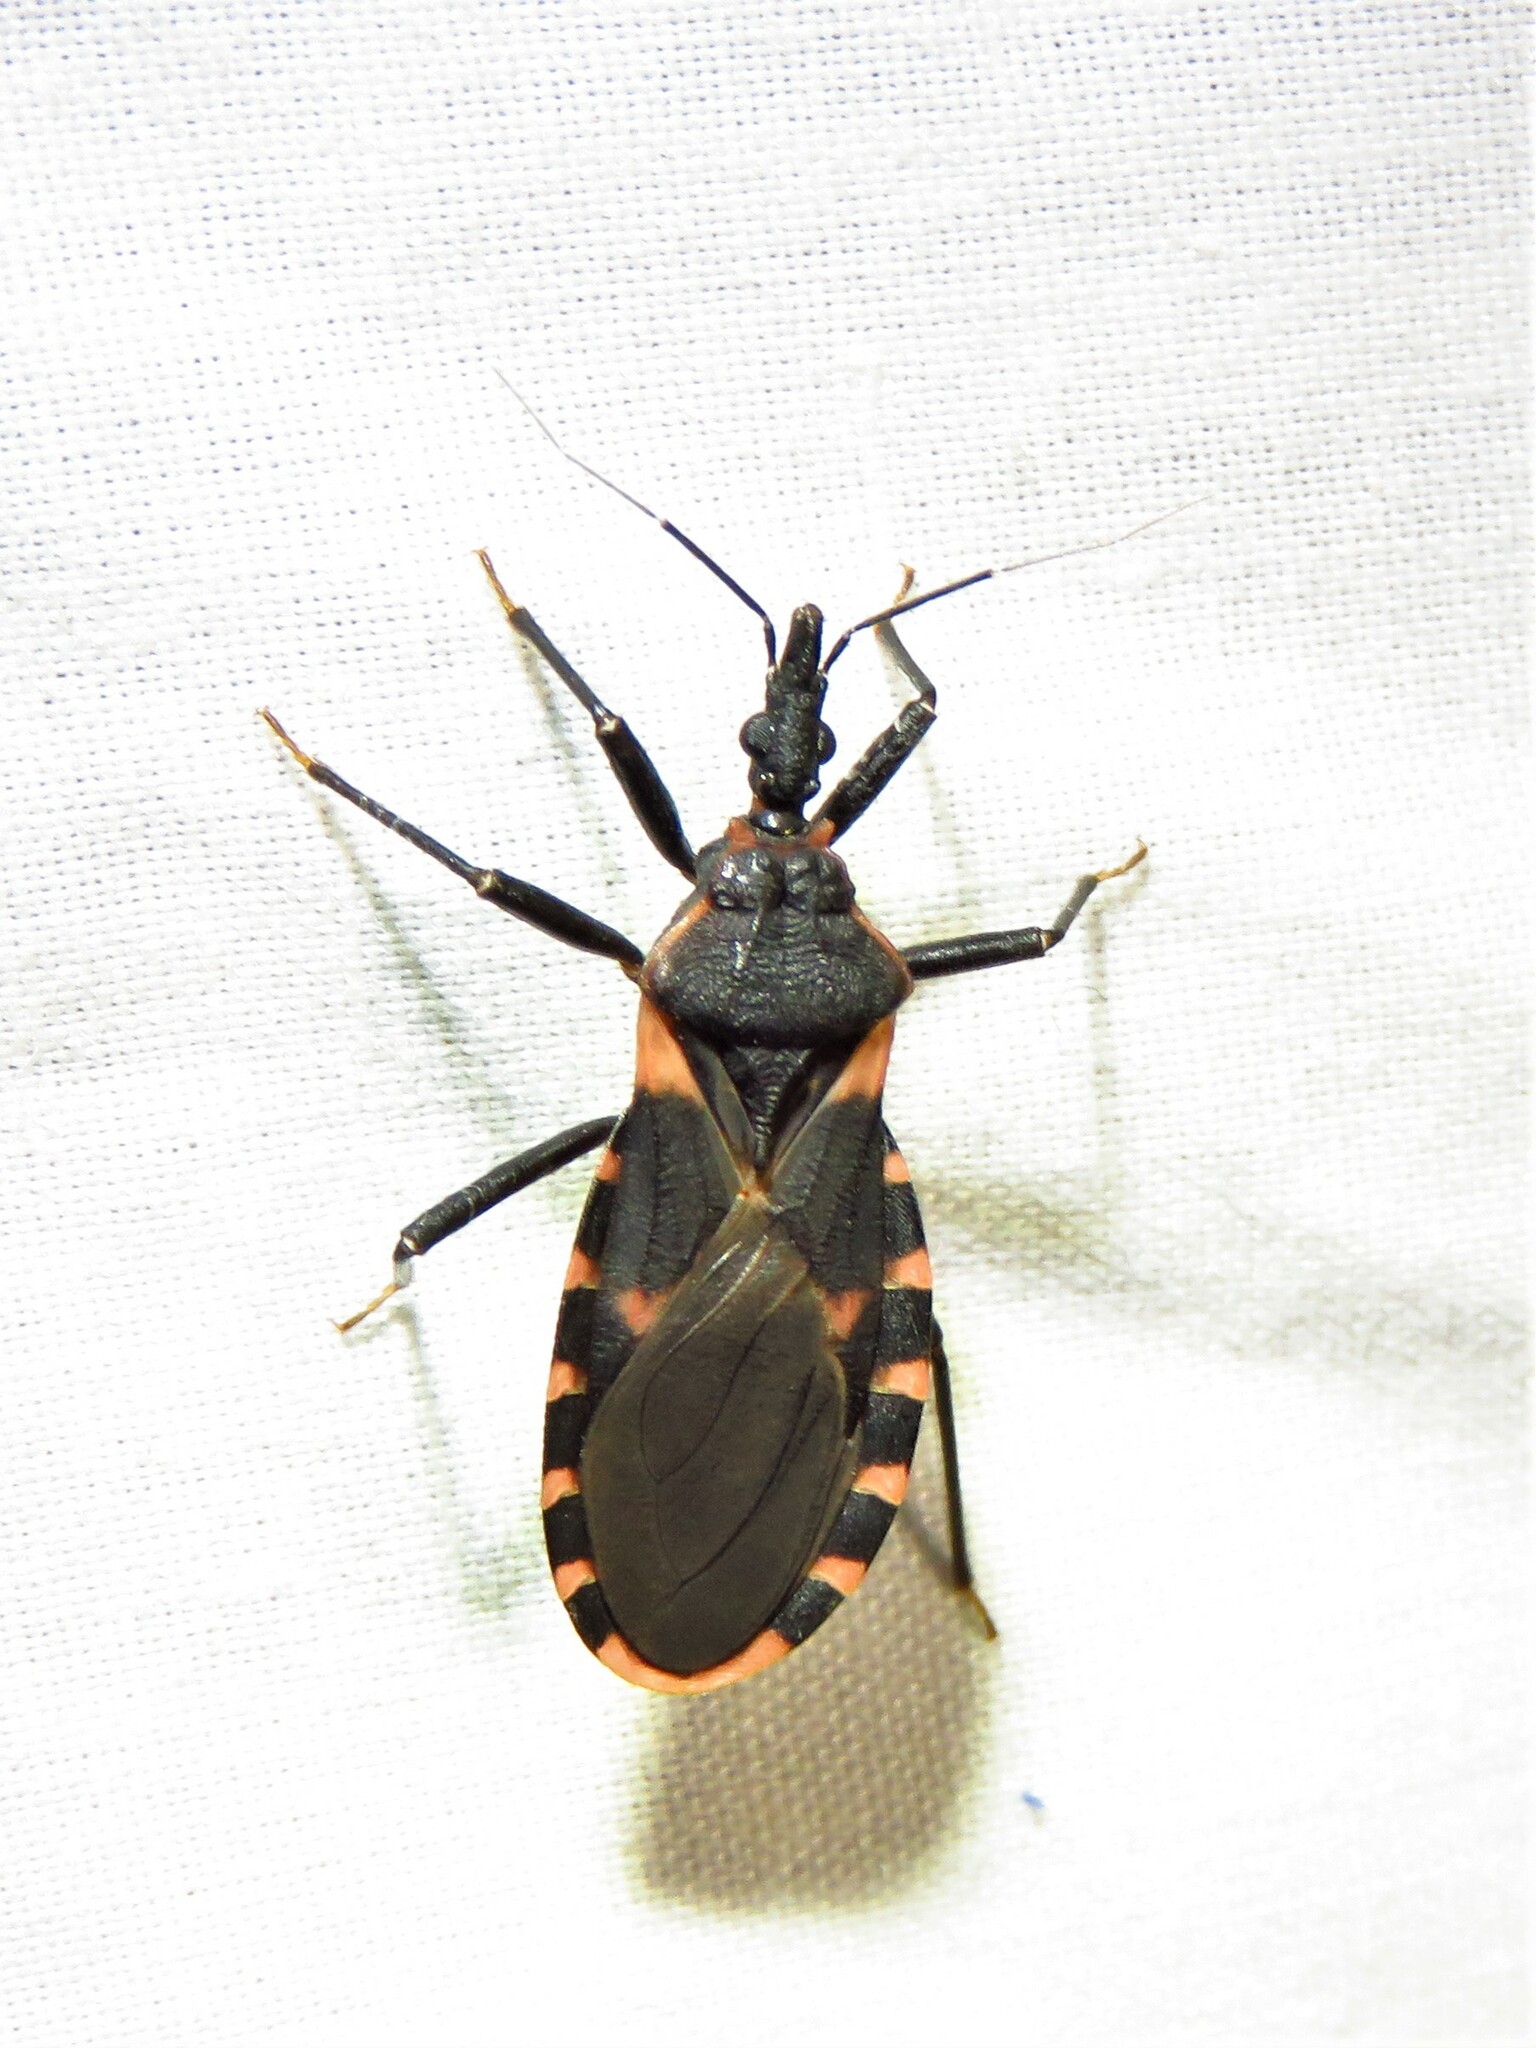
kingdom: Animalia
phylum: Arthropoda
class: Insecta
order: Hemiptera
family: Reduviidae
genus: Triatoma
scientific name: Triatoma sanguisuga
